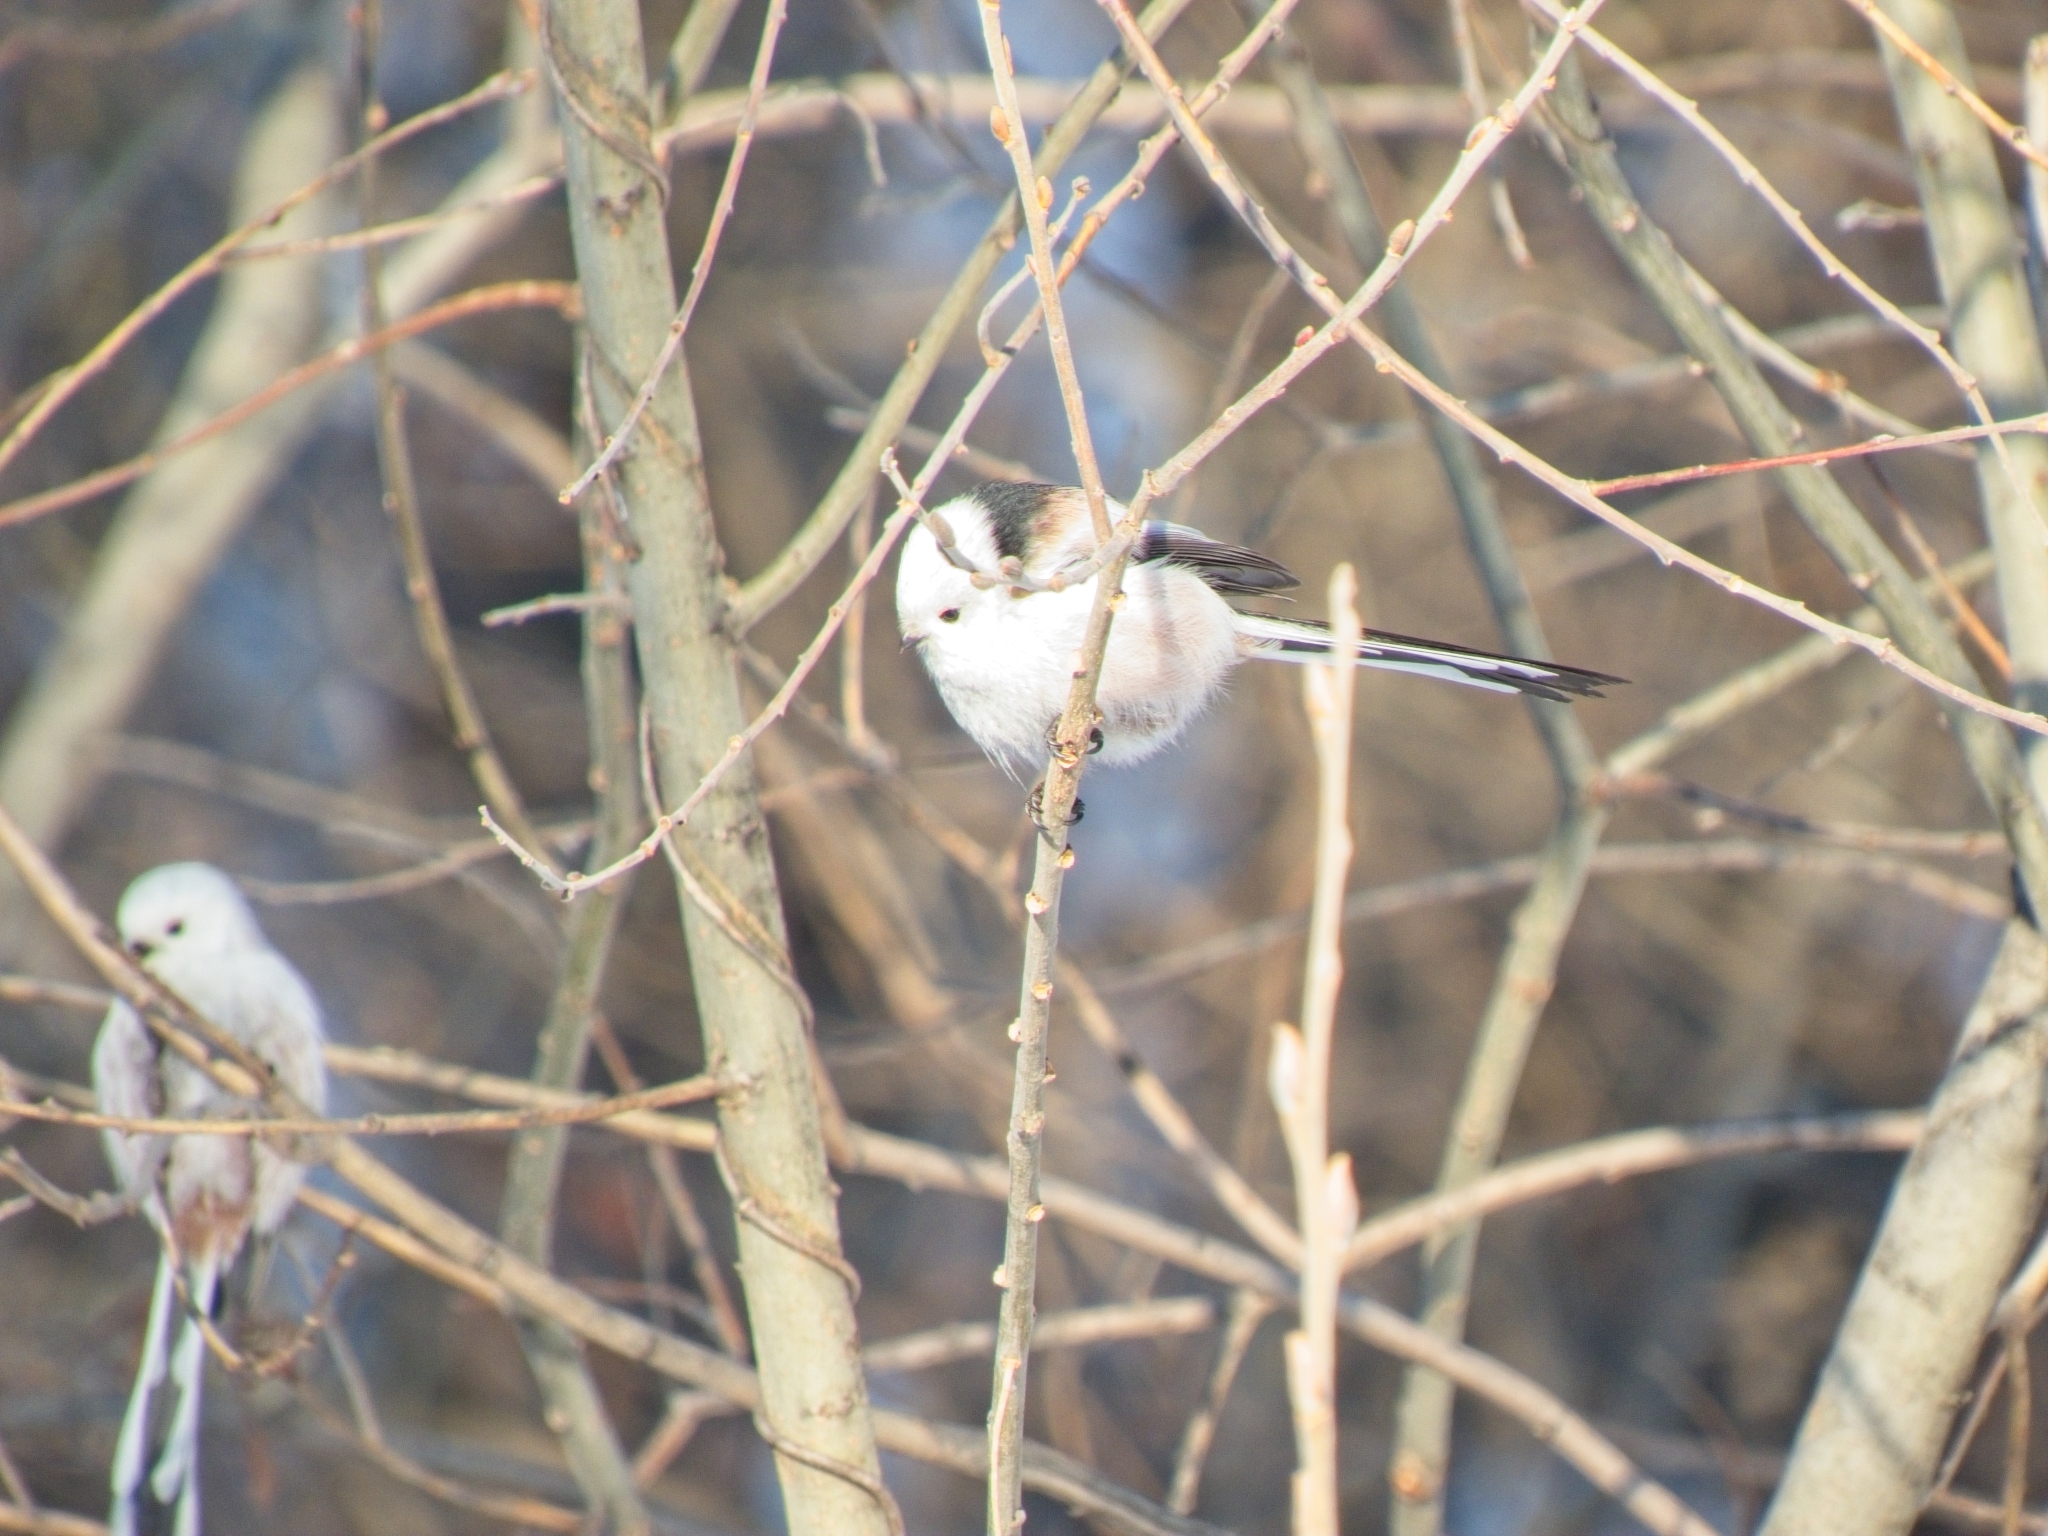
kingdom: Animalia
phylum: Chordata
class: Aves
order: Passeriformes
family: Aegithalidae
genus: Aegithalos
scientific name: Aegithalos caudatus
